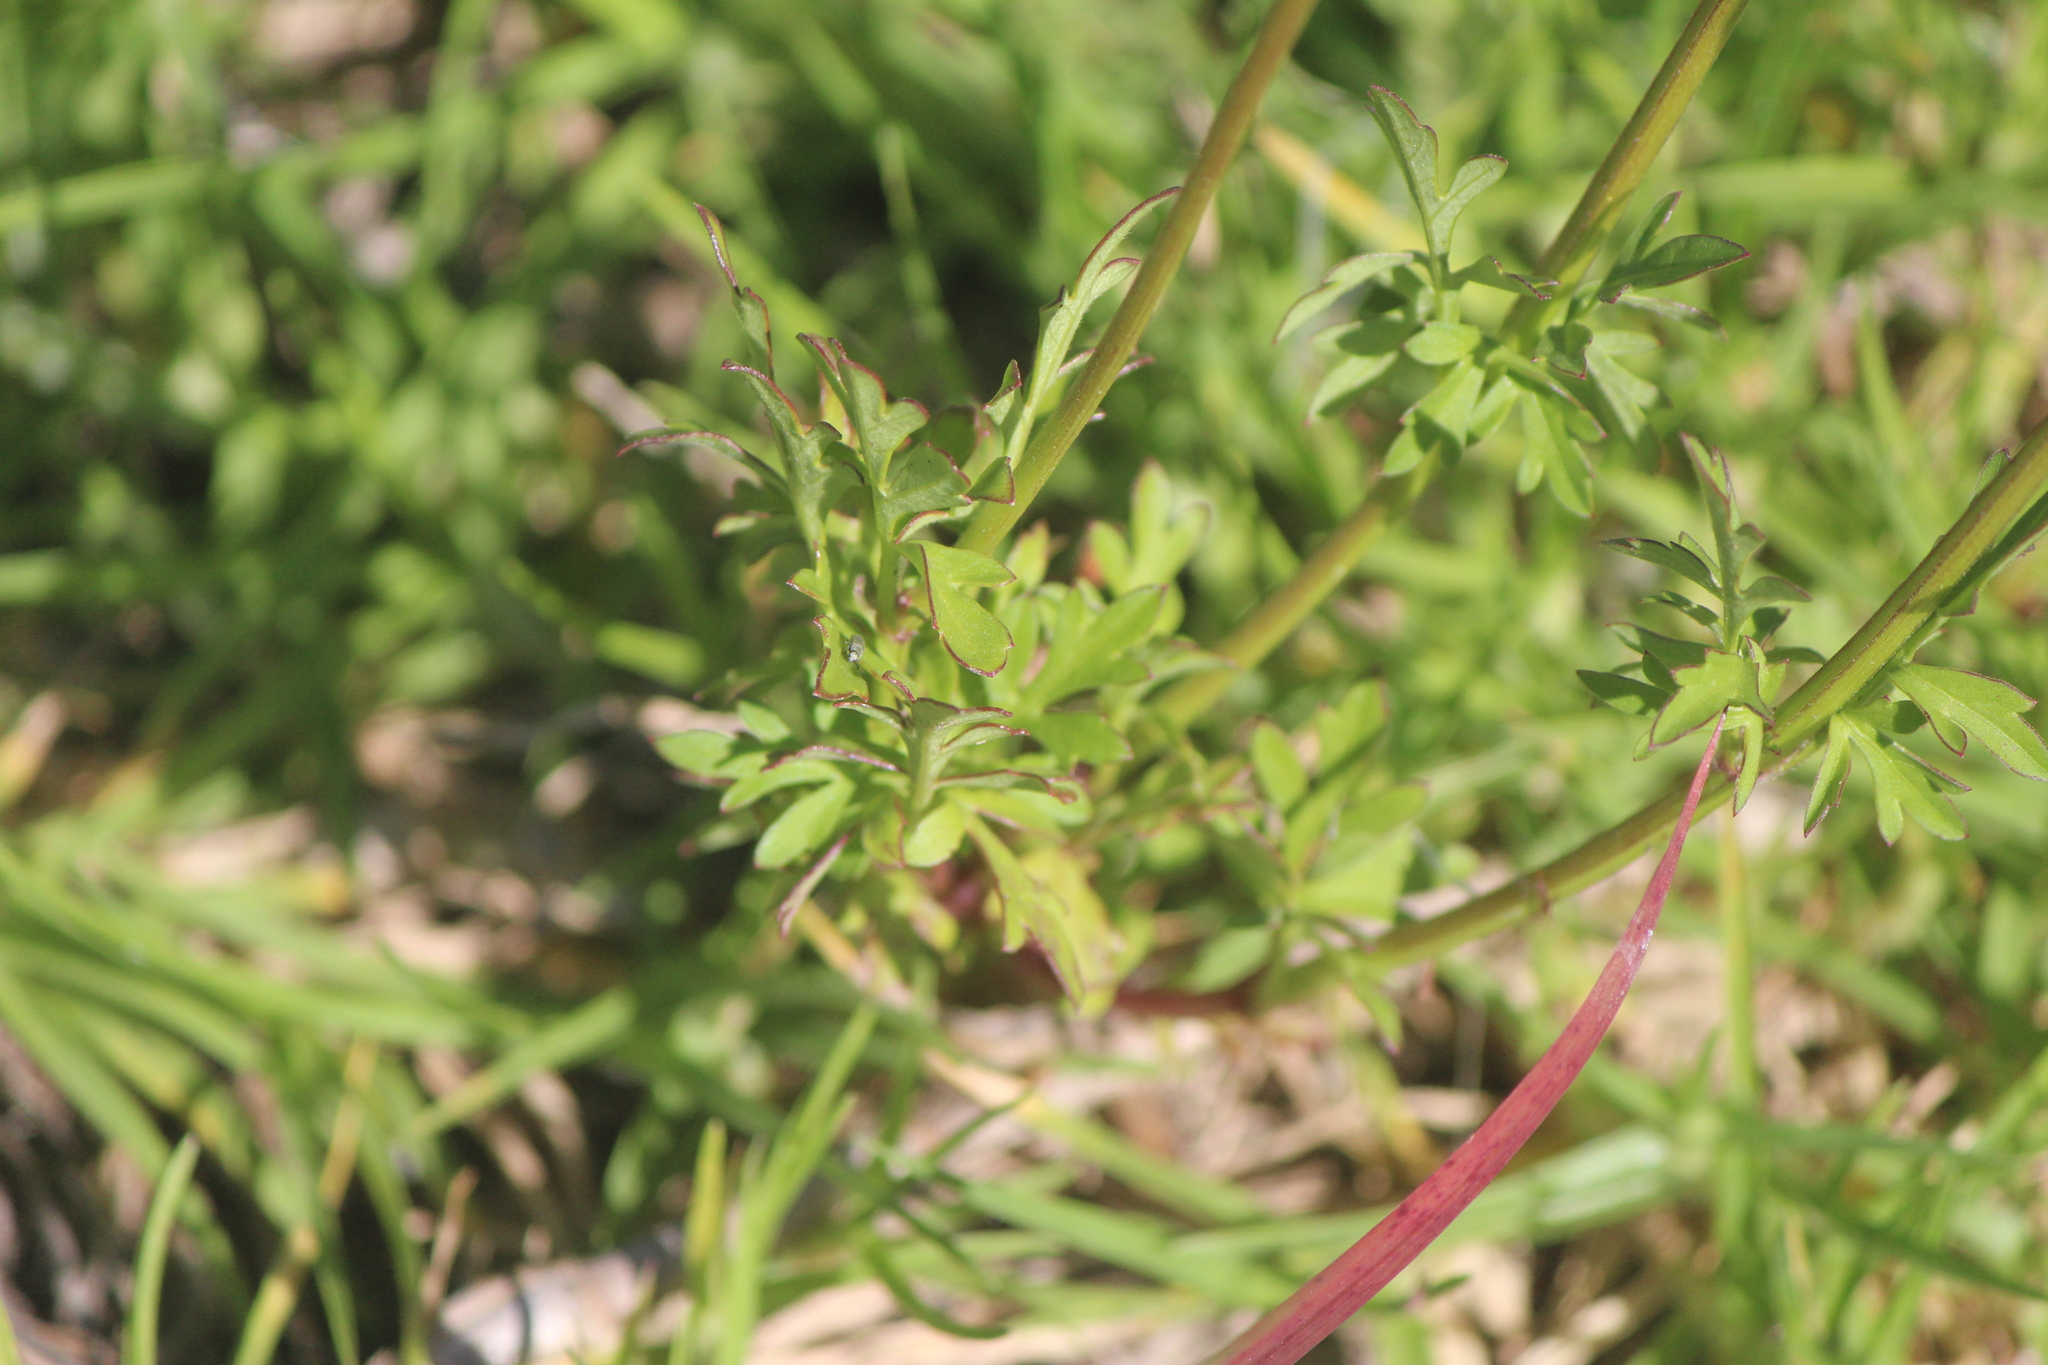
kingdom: Plantae
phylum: Tracheophyta
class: Magnoliopsida
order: Asterales
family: Asteraceae
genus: Bidens
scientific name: Bidens odorata
